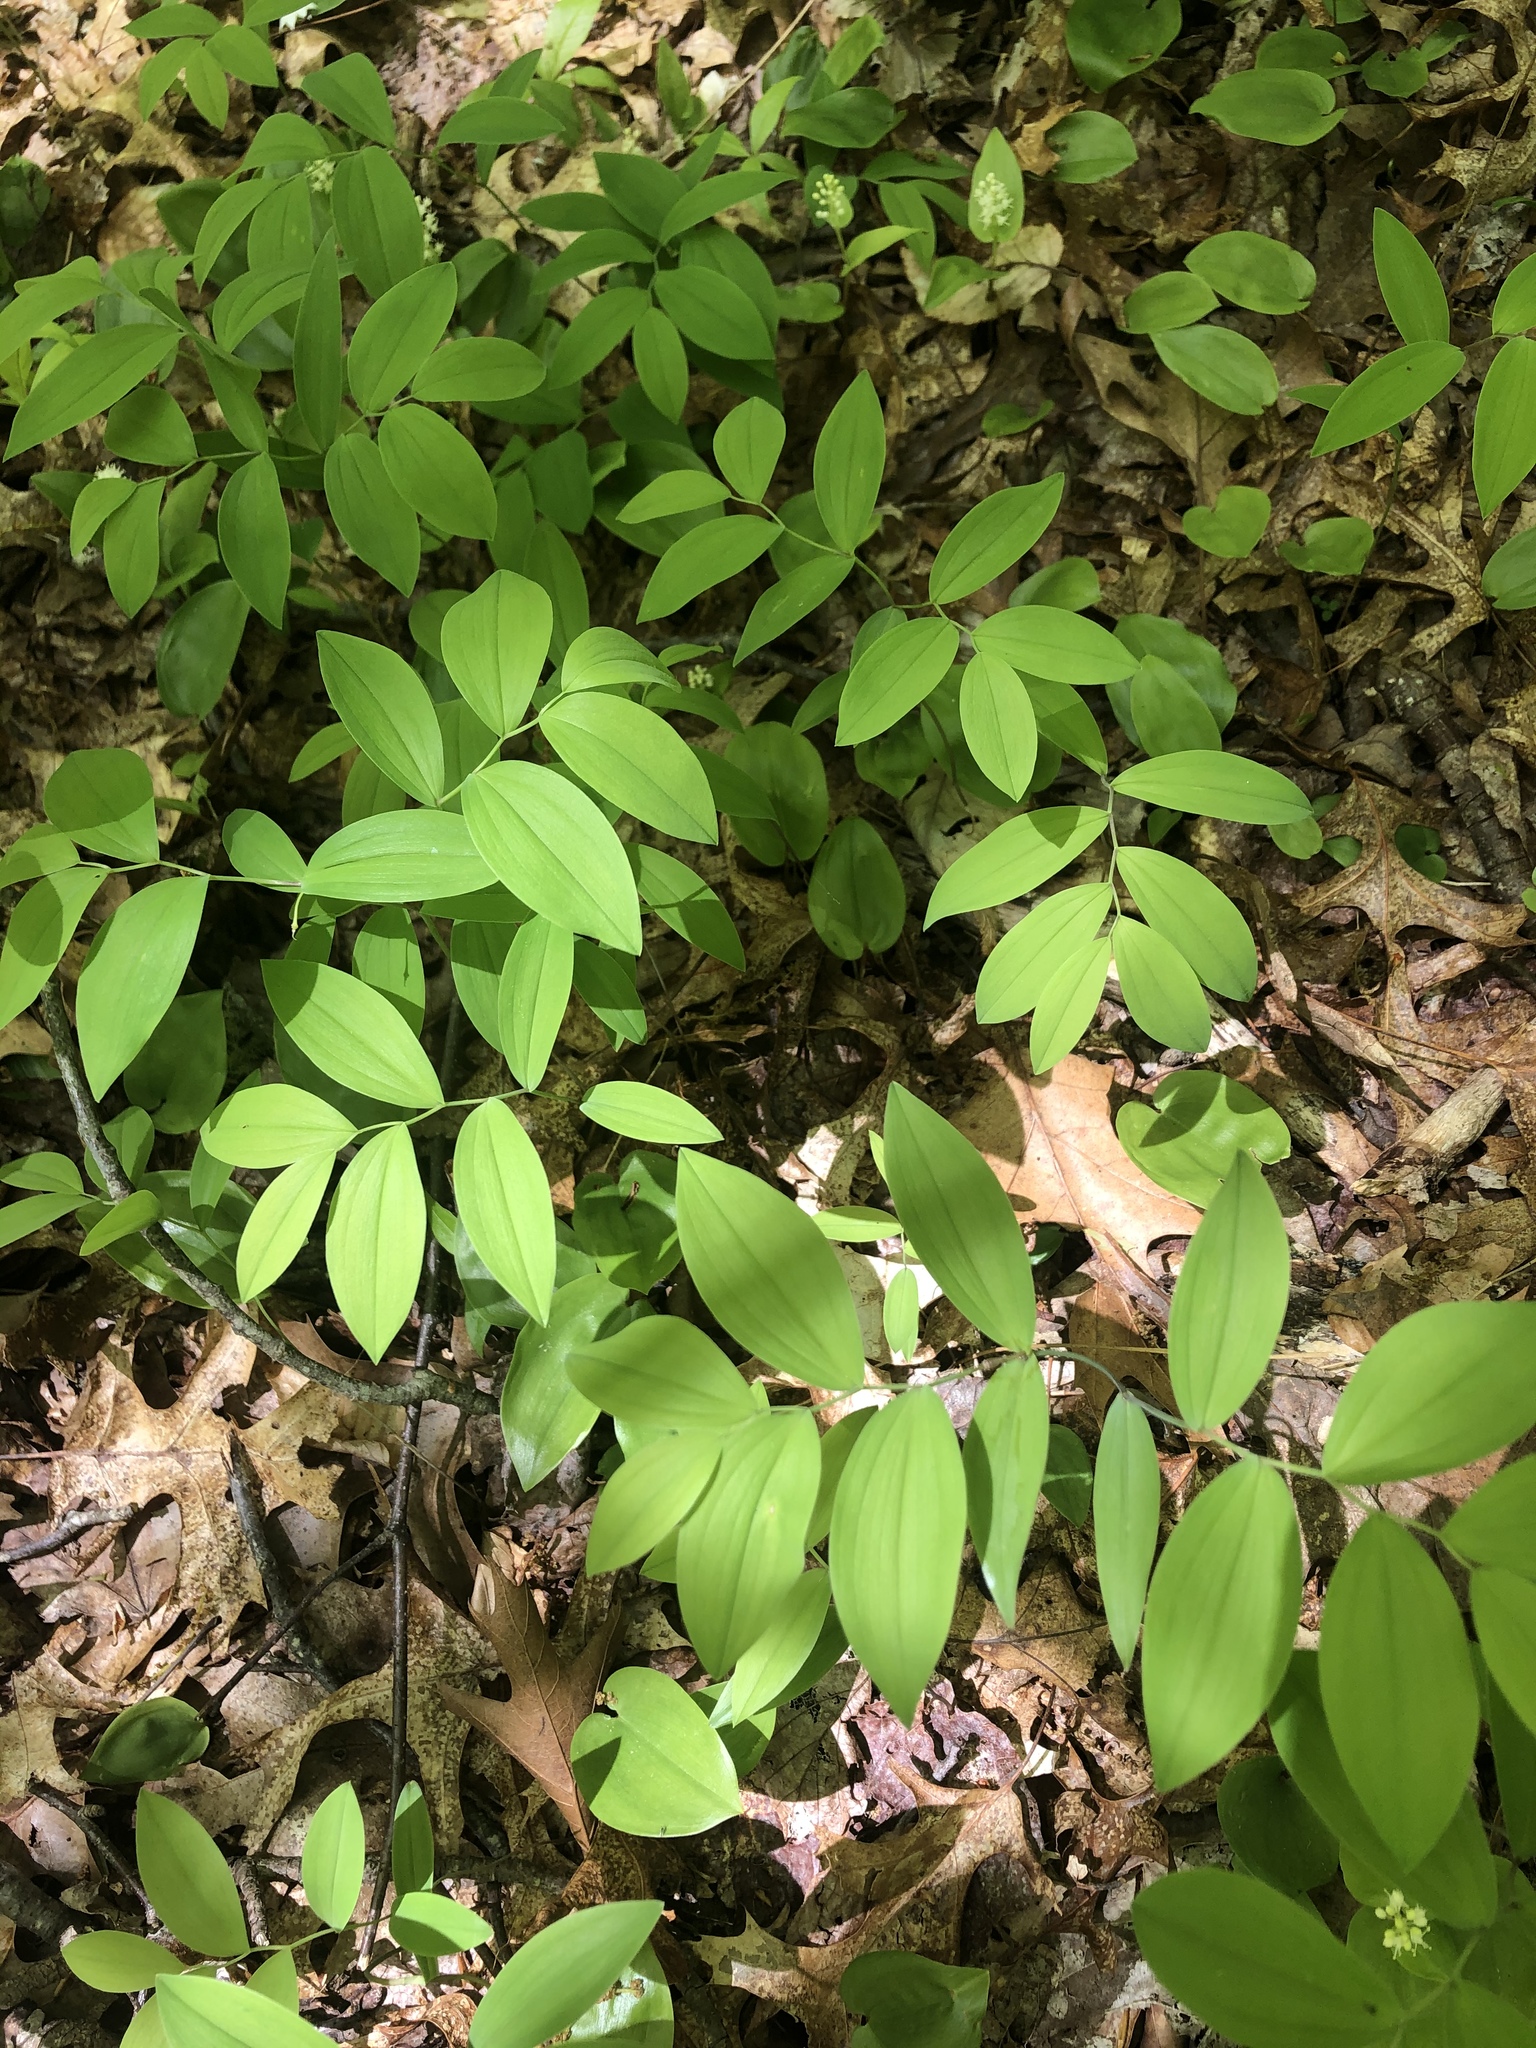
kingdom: Plantae
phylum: Tracheophyta
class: Liliopsida
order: Liliales
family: Colchicaceae
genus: Uvularia
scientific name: Uvularia sessilifolia
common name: Straw-lily
